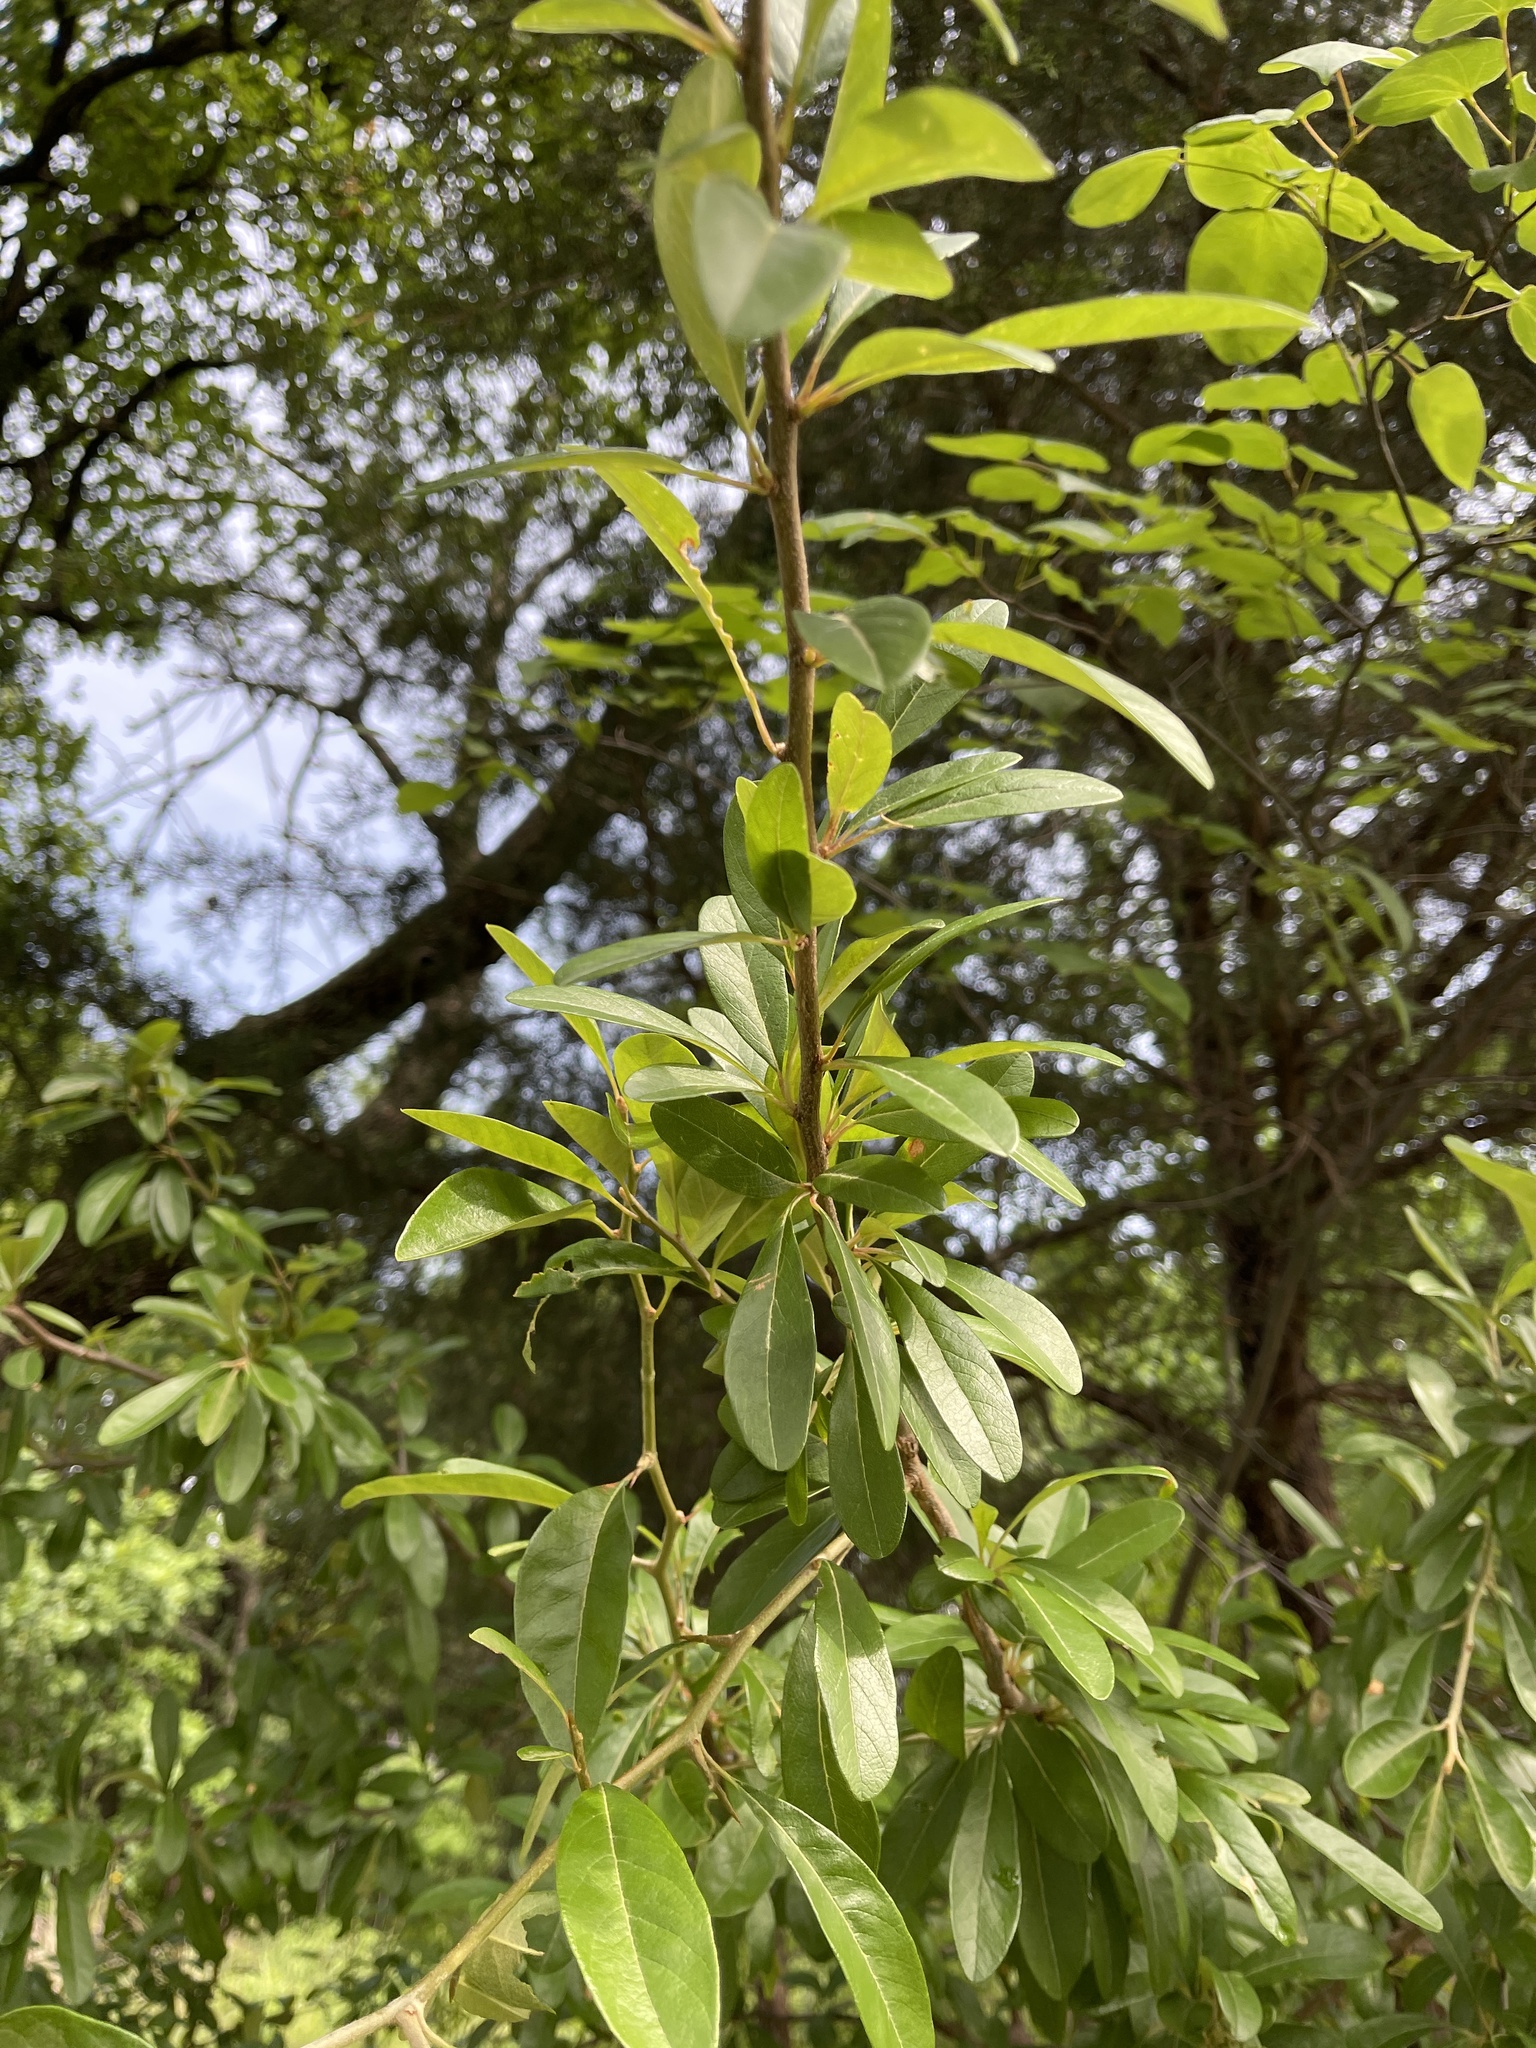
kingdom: Plantae
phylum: Tracheophyta
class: Magnoliopsida
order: Ericales
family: Sapotaceae
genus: Sideroxylon
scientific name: Sideroxylon lanuginosum
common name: Chittamwood
